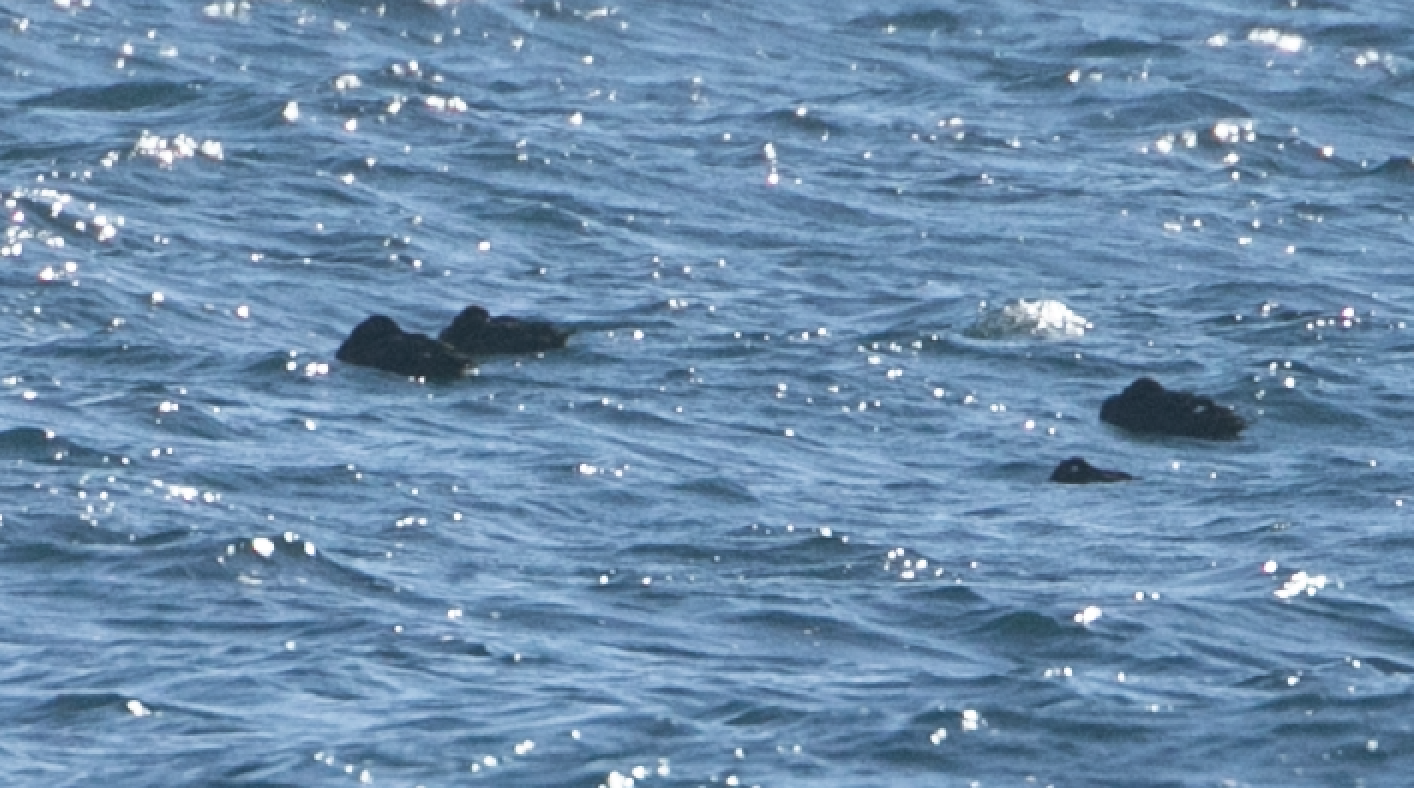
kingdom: Animalia
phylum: Chordata
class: Aves
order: Anseriformes
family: Anatidae
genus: Melanitta
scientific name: Melanitta fusca
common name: Velvet scoter
